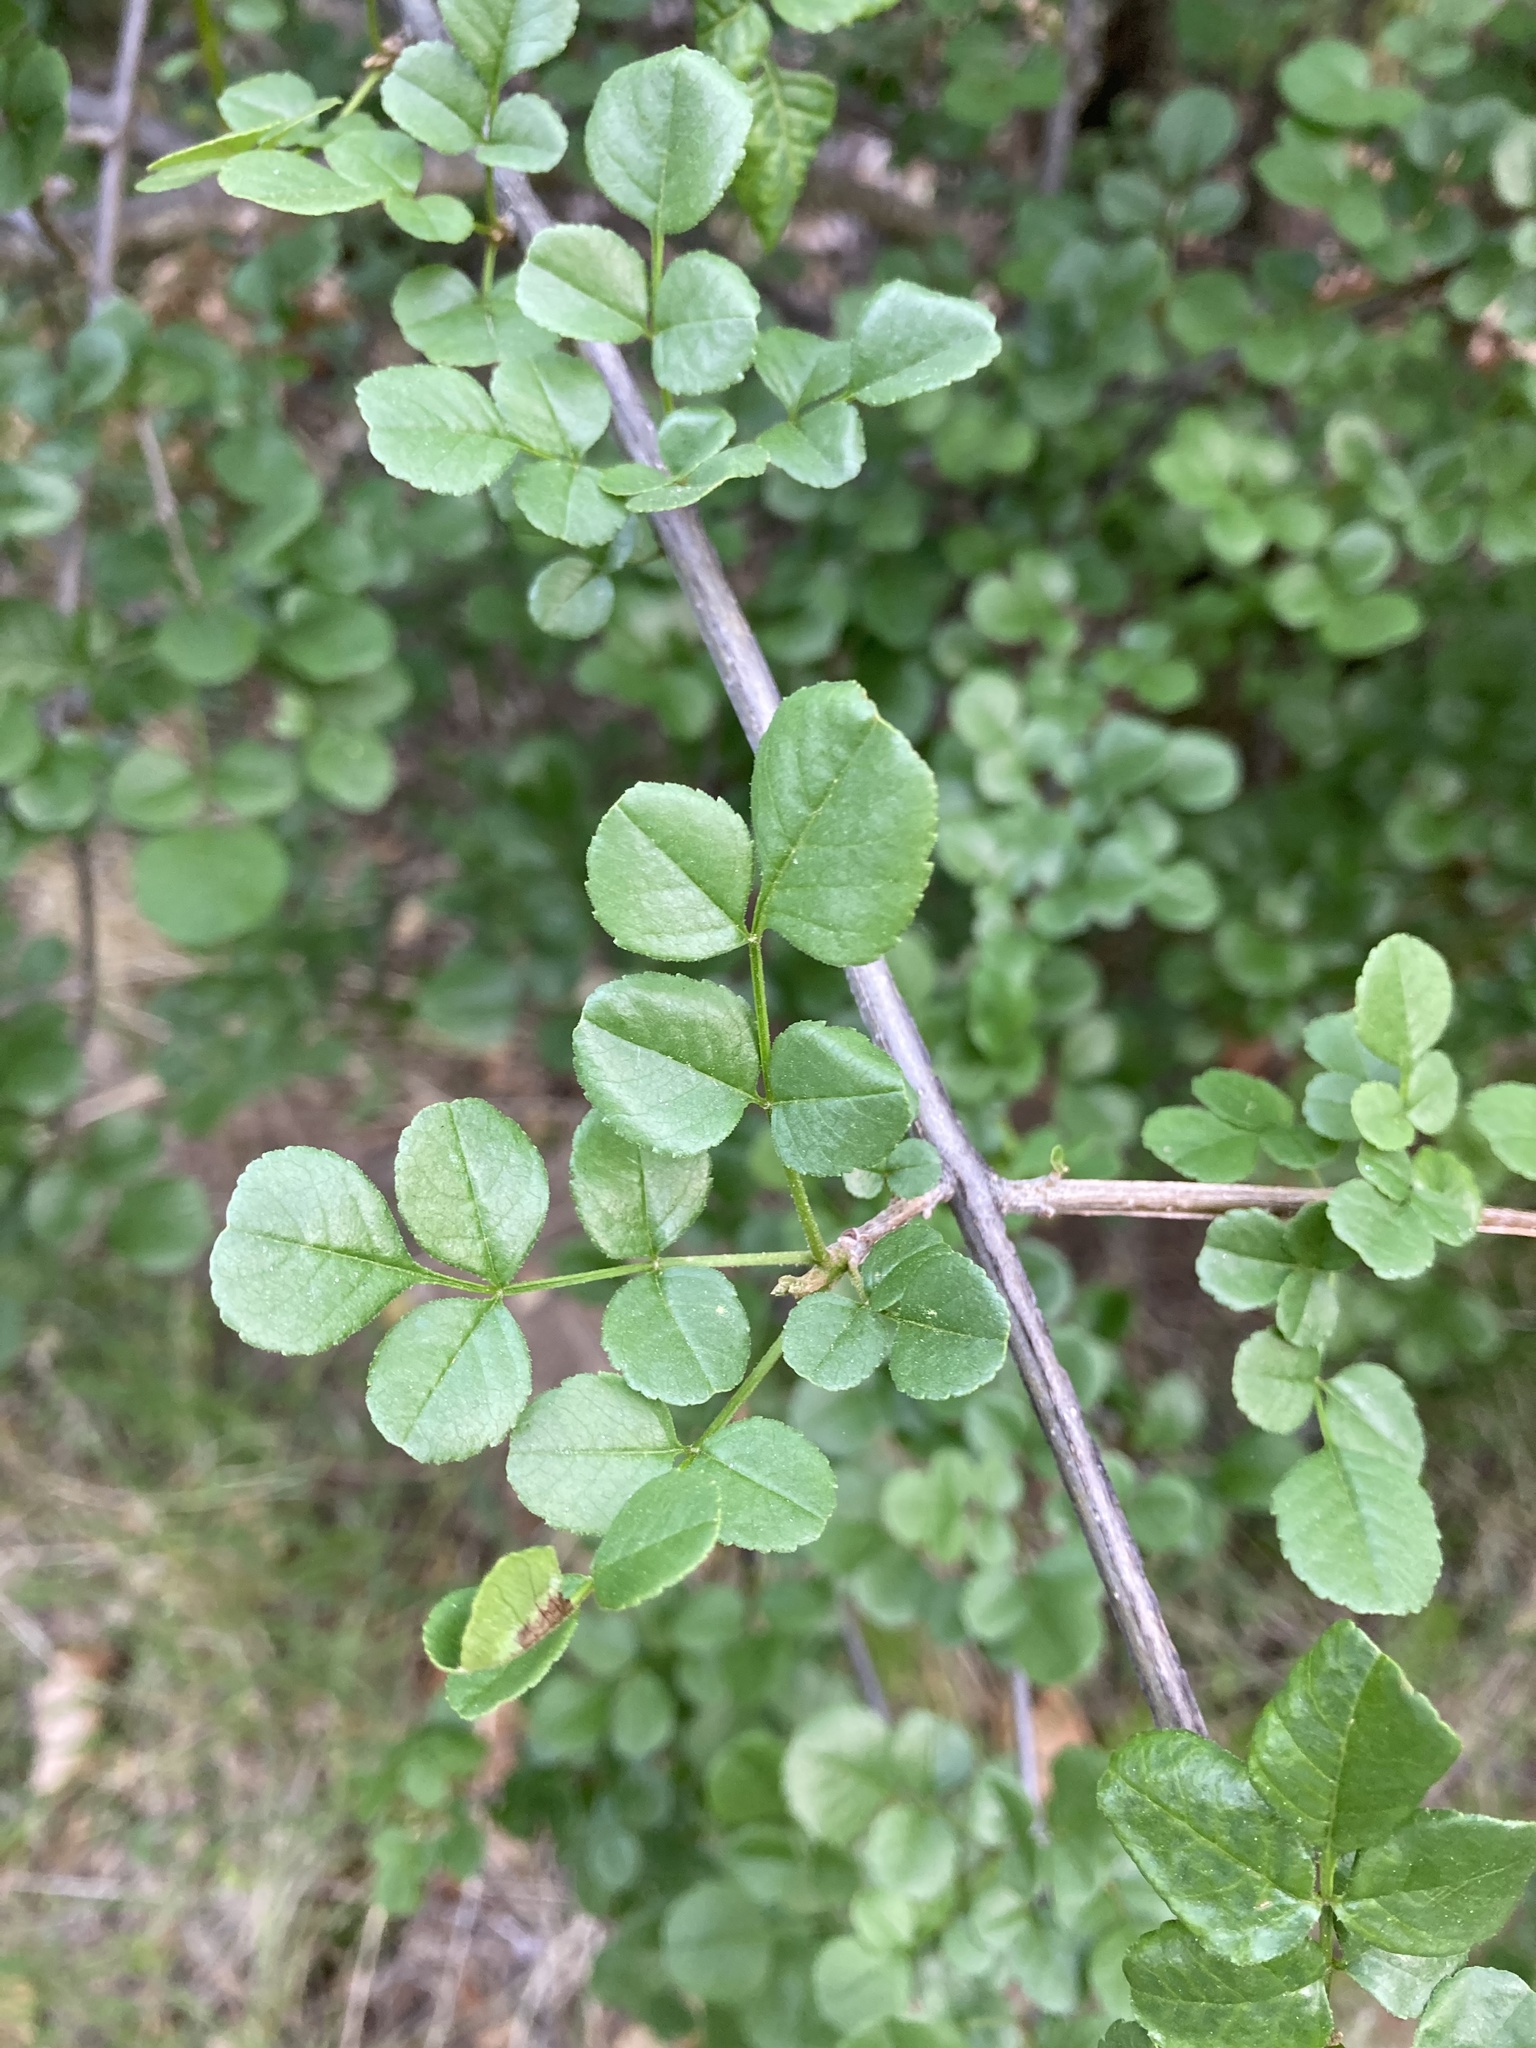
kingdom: Plantae
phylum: Tracheophyta
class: Magnoliopsida
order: Lamiales
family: Oleaceae
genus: Fraxinus
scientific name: Fraxinus dipetala
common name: California ash
